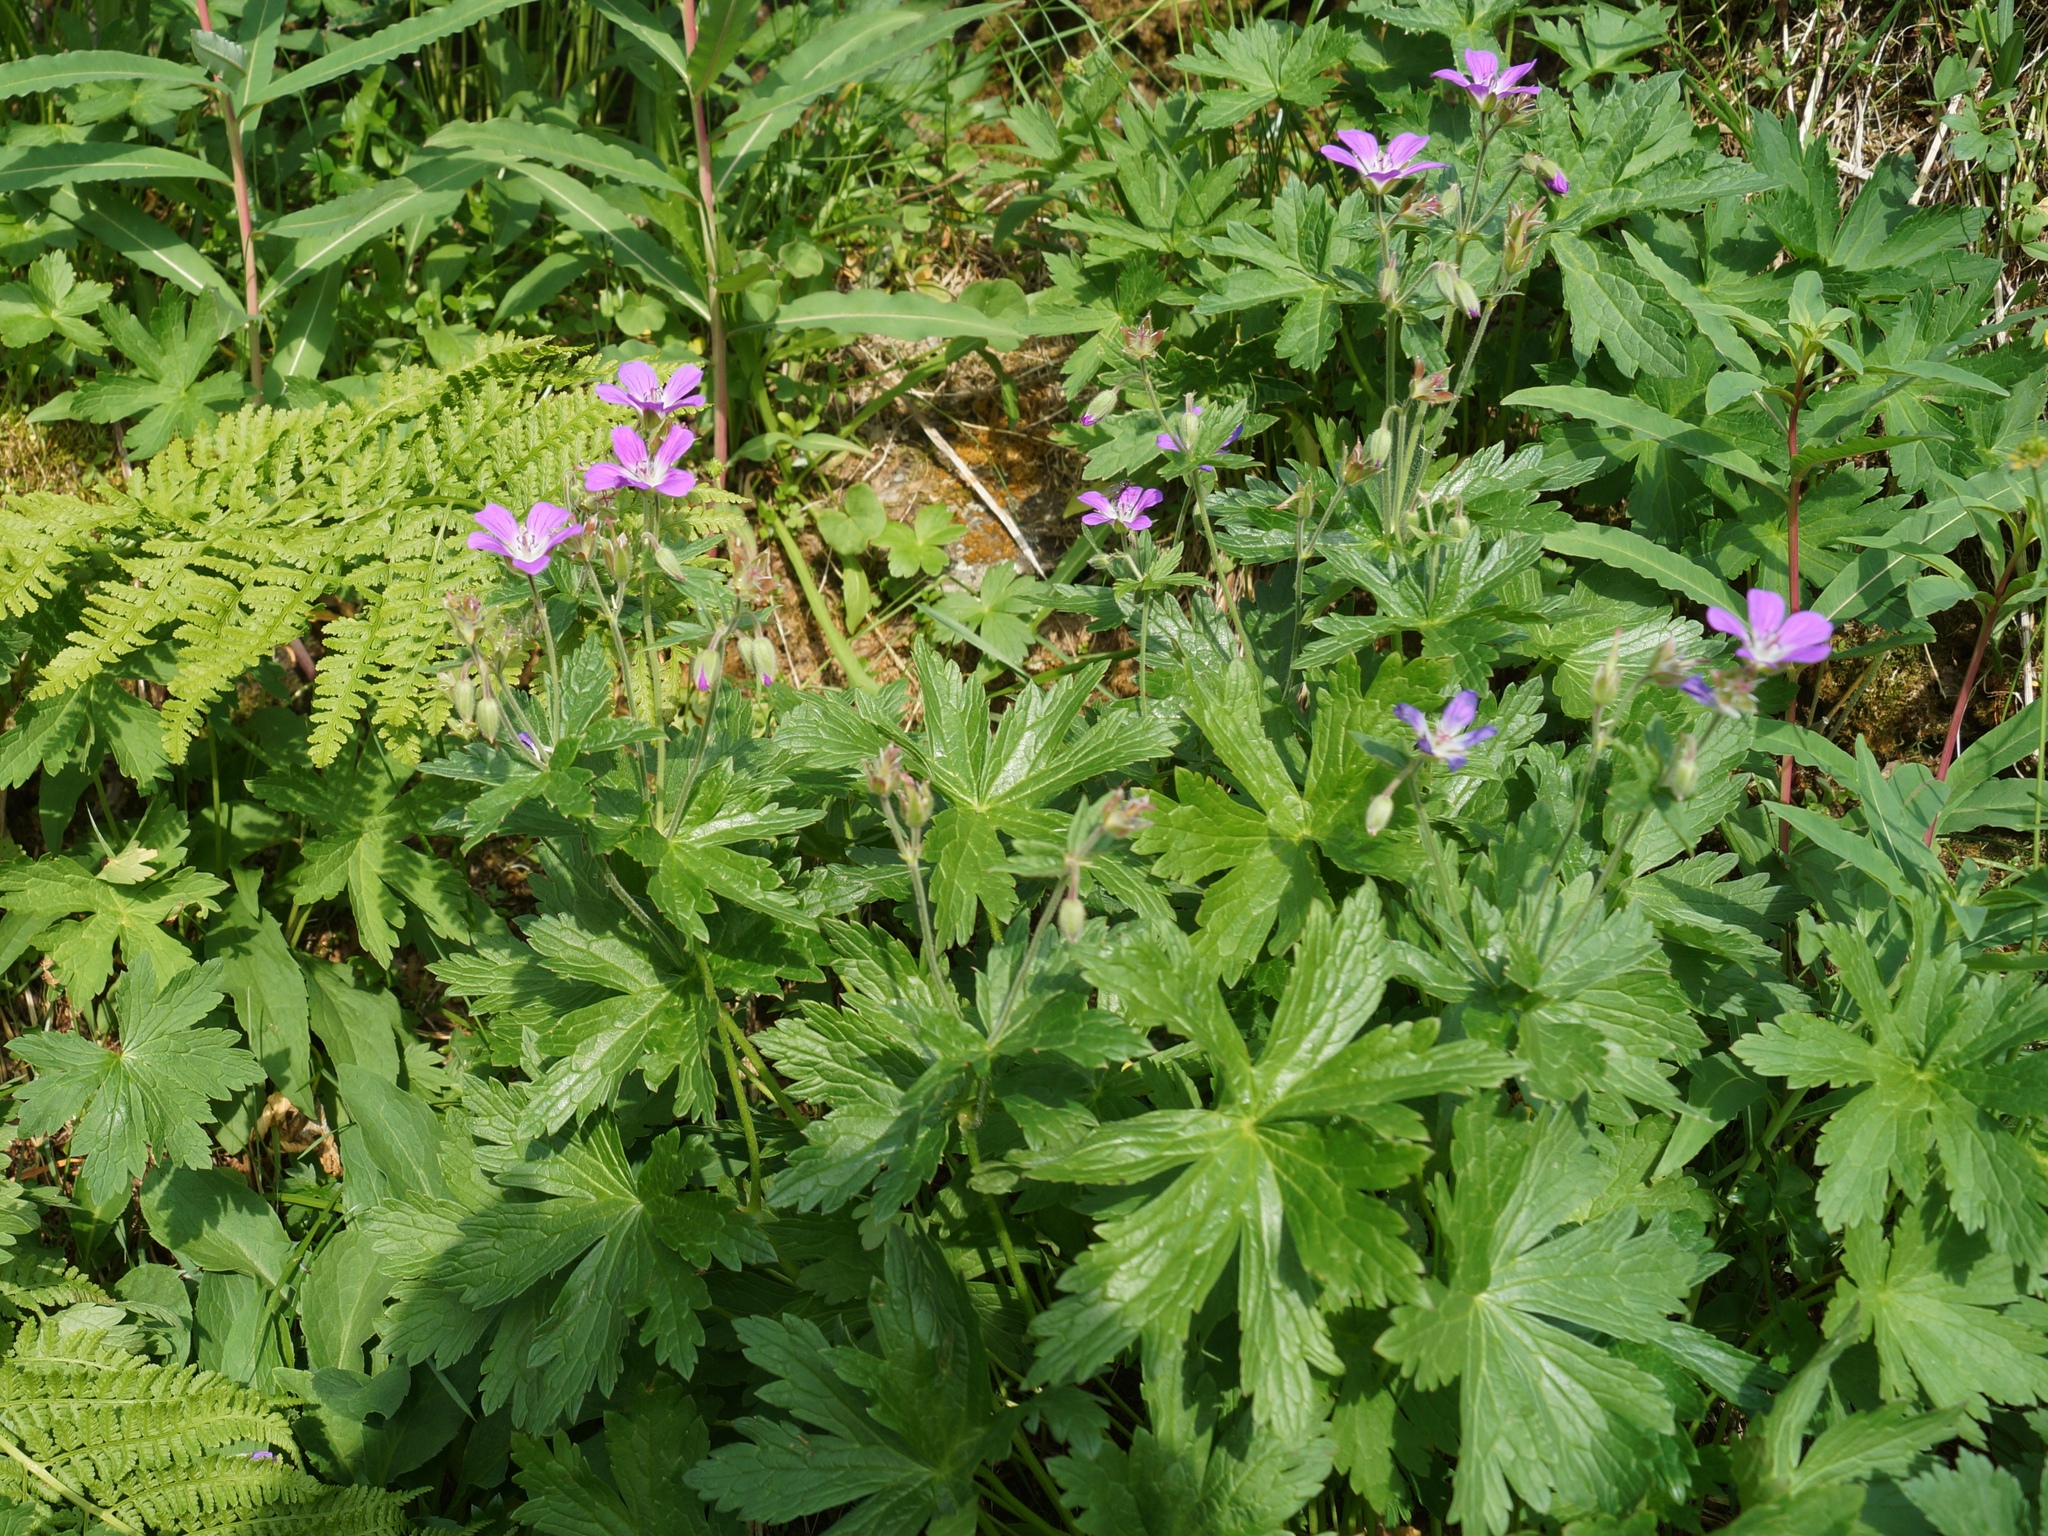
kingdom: Plantae
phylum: Tracheophyta
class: Magnoliopsida
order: Geraniales
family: Geraniaceae
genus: Geranium
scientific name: Geranium sylvaticum
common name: Wood crane's-bill
